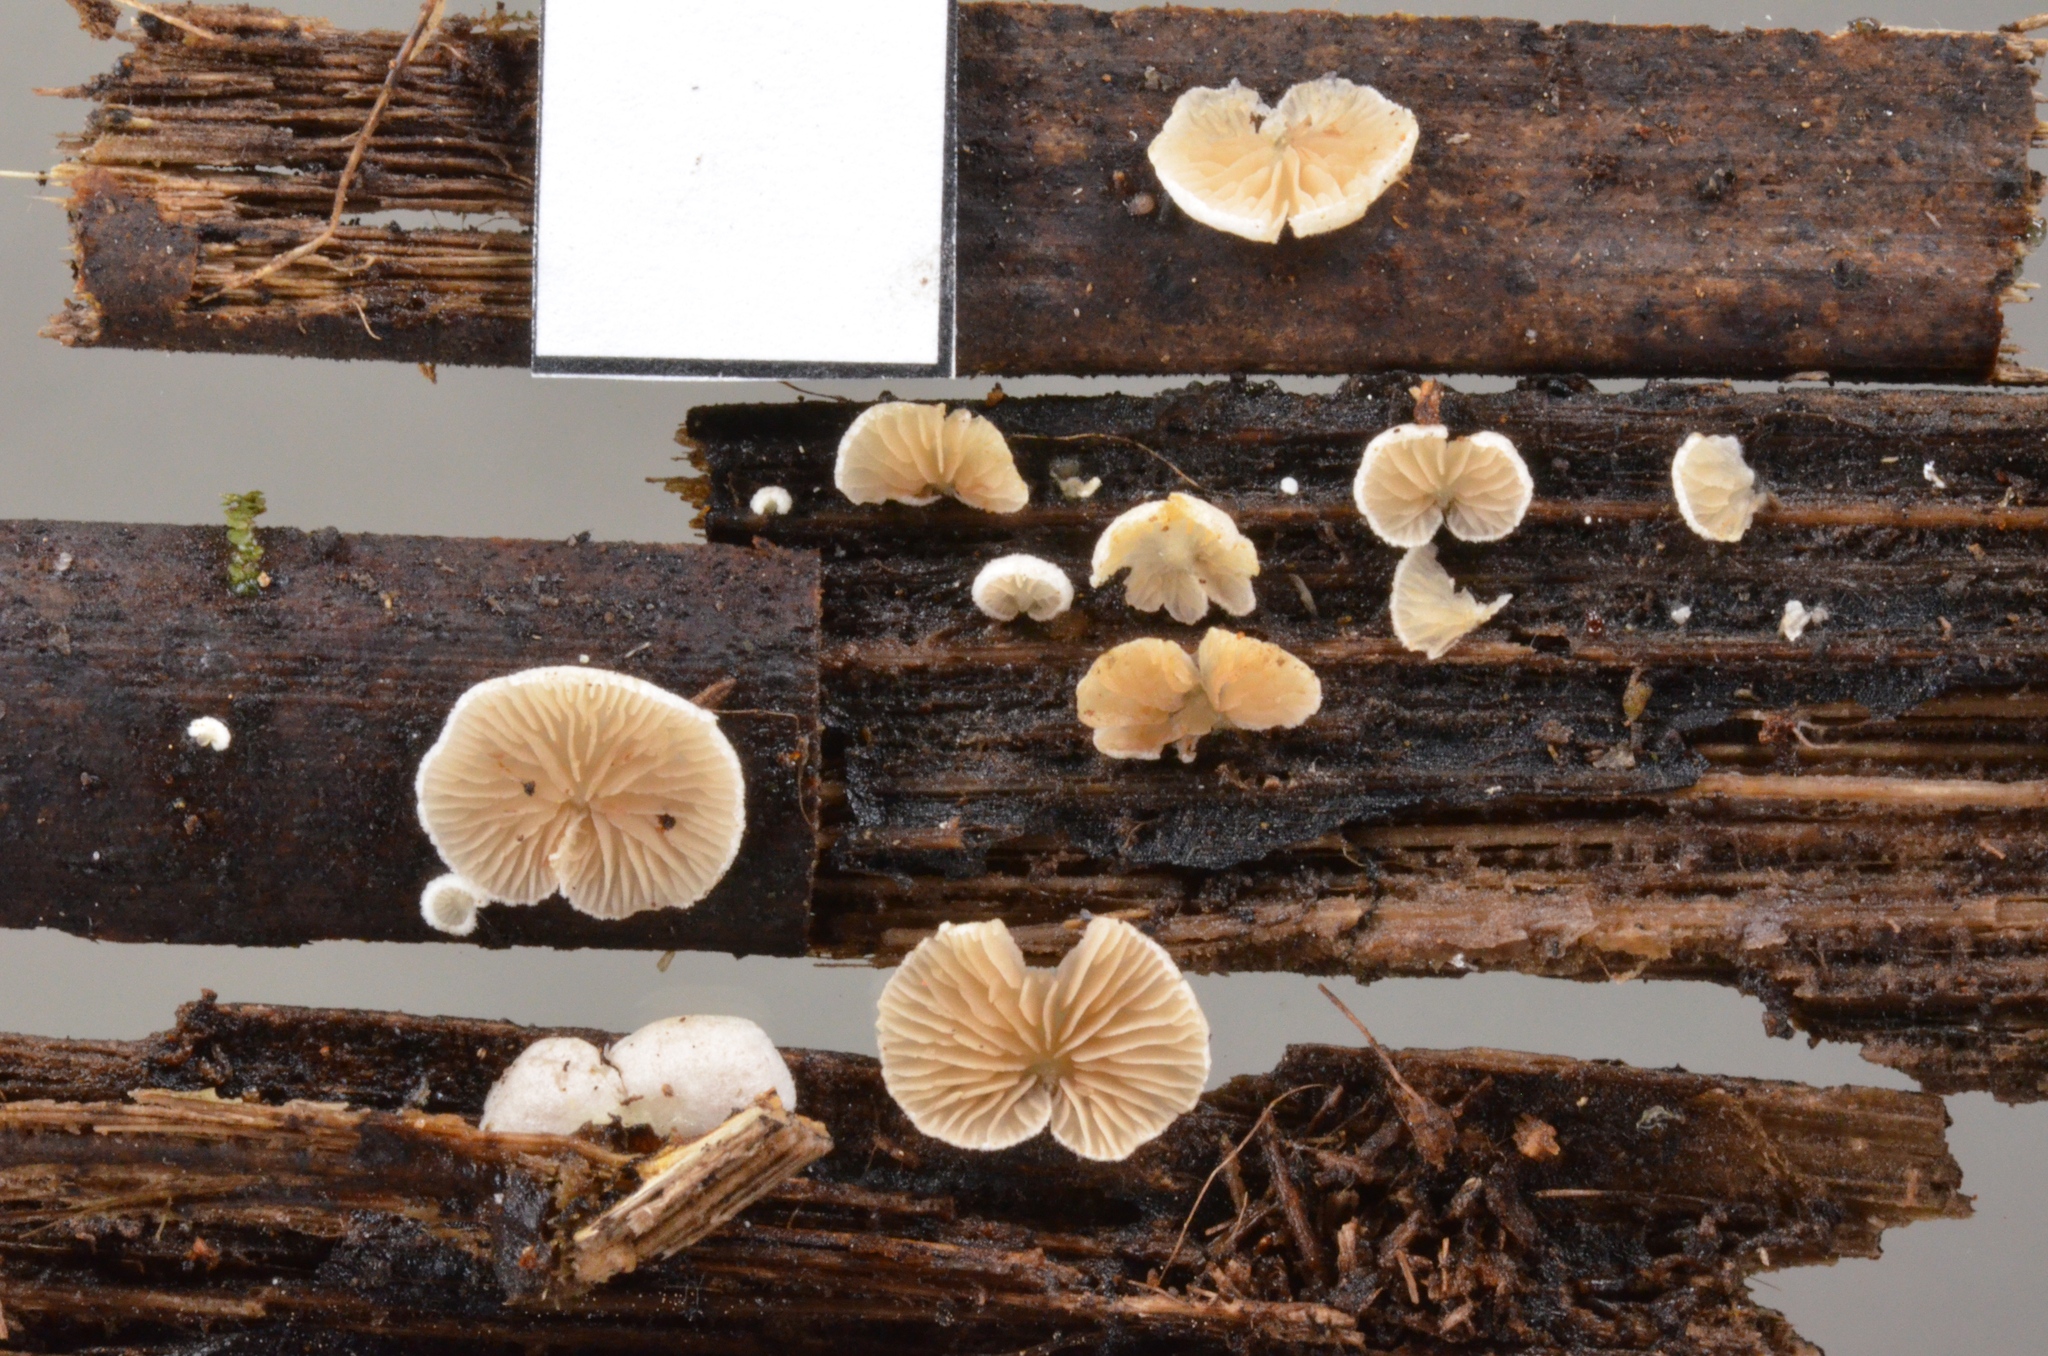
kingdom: Fungi
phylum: Basidiomycota
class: Agaricomycetes
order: Agaricales
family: Crepidotaceae
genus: Crepidotus
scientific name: Crepidotus occultus
